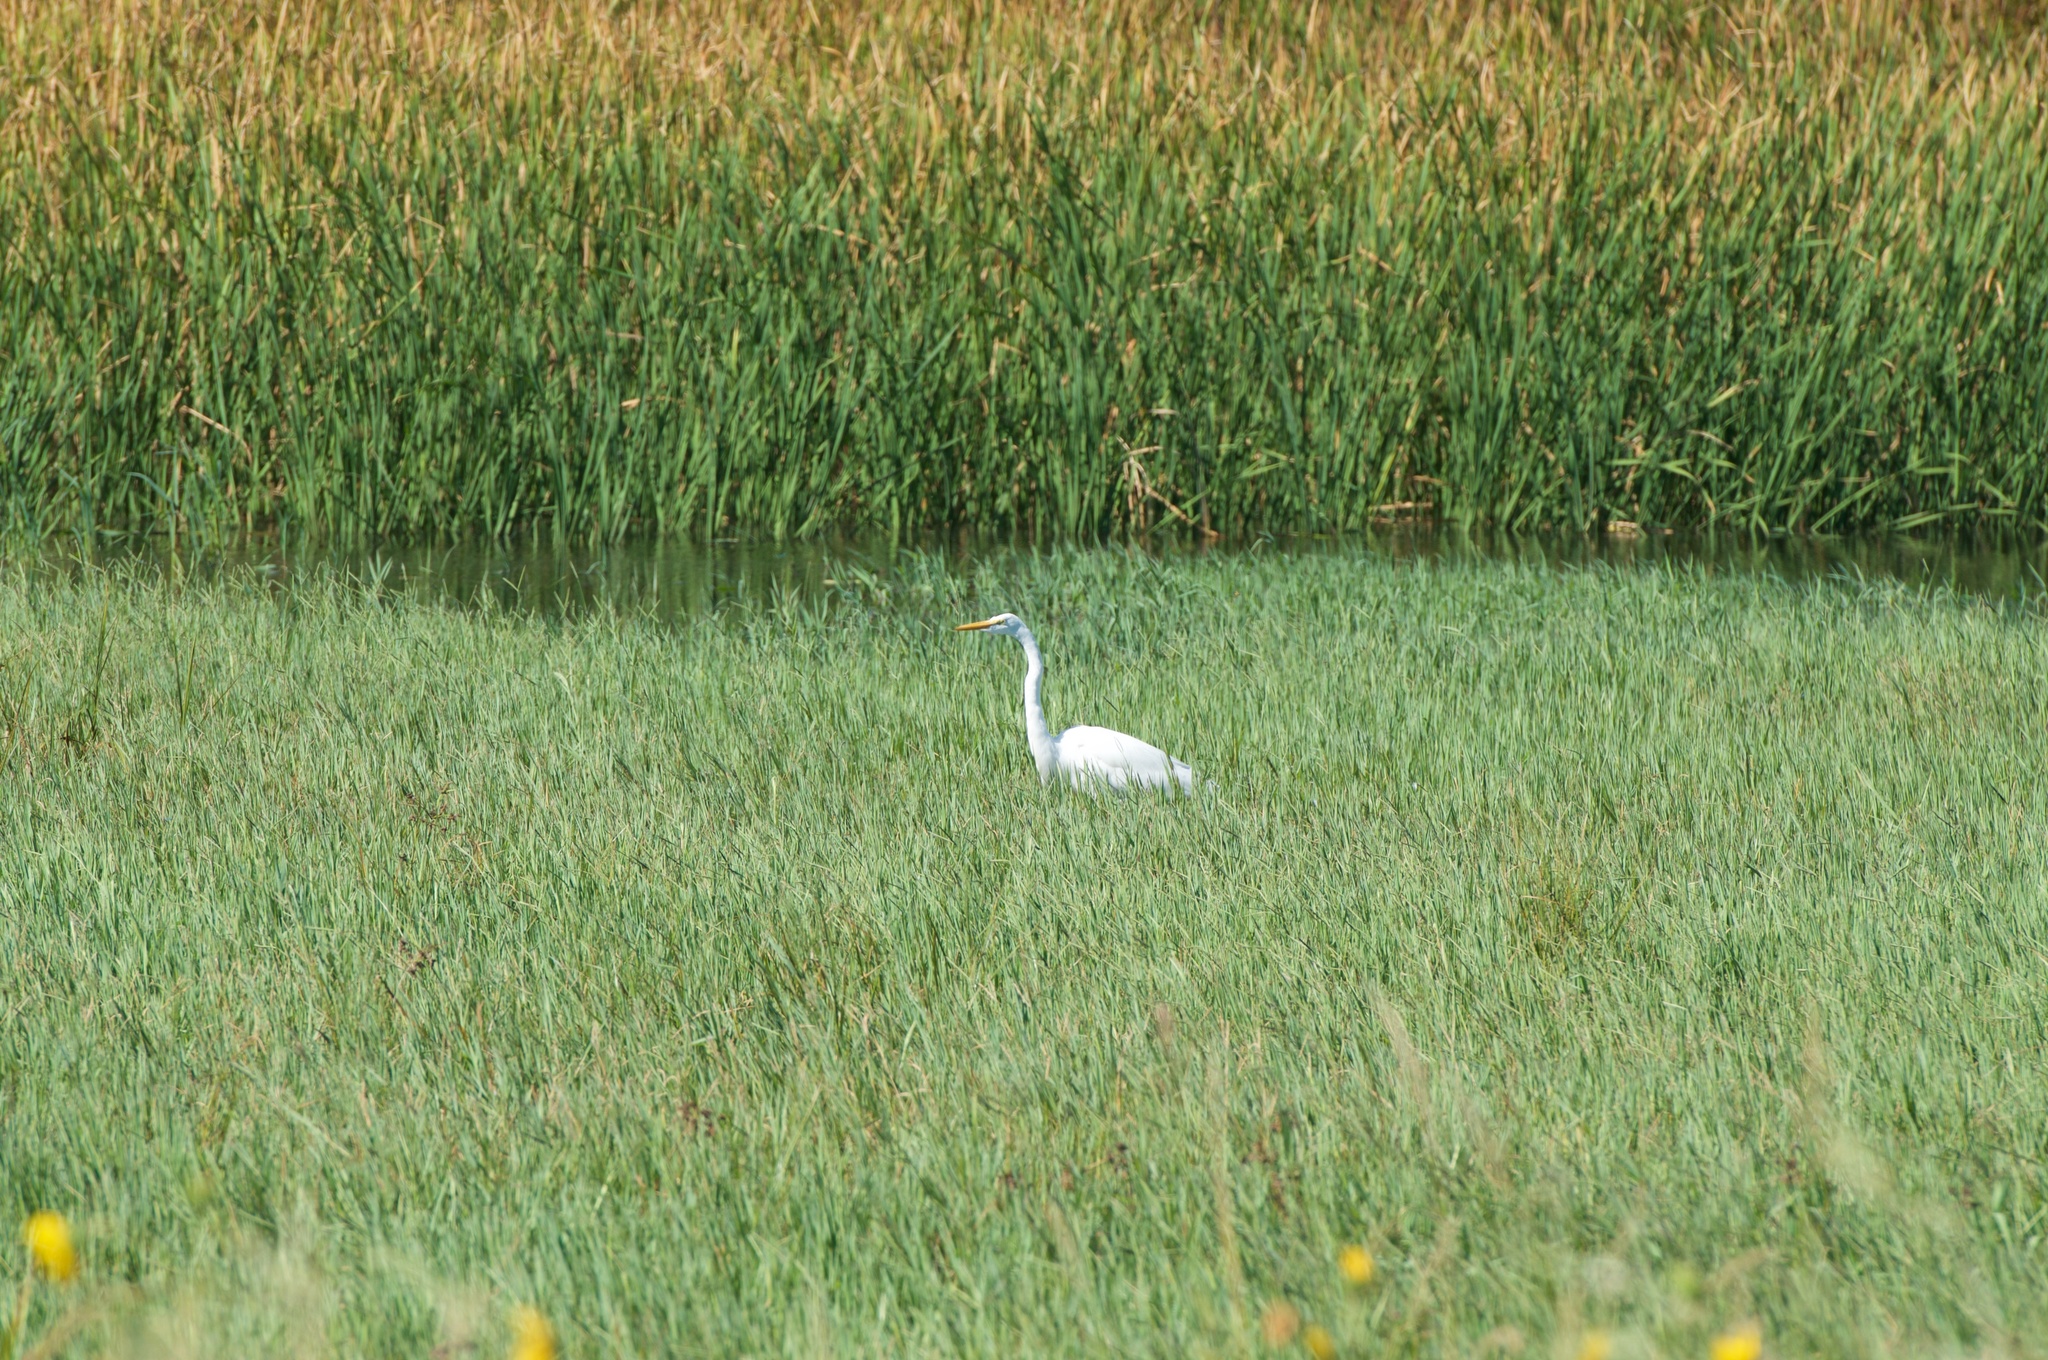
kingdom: Animalia
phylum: Chordata
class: Aves
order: Pelecaniformes
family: Ardeidae
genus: Ardea
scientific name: Ardea alba
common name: Great egret
